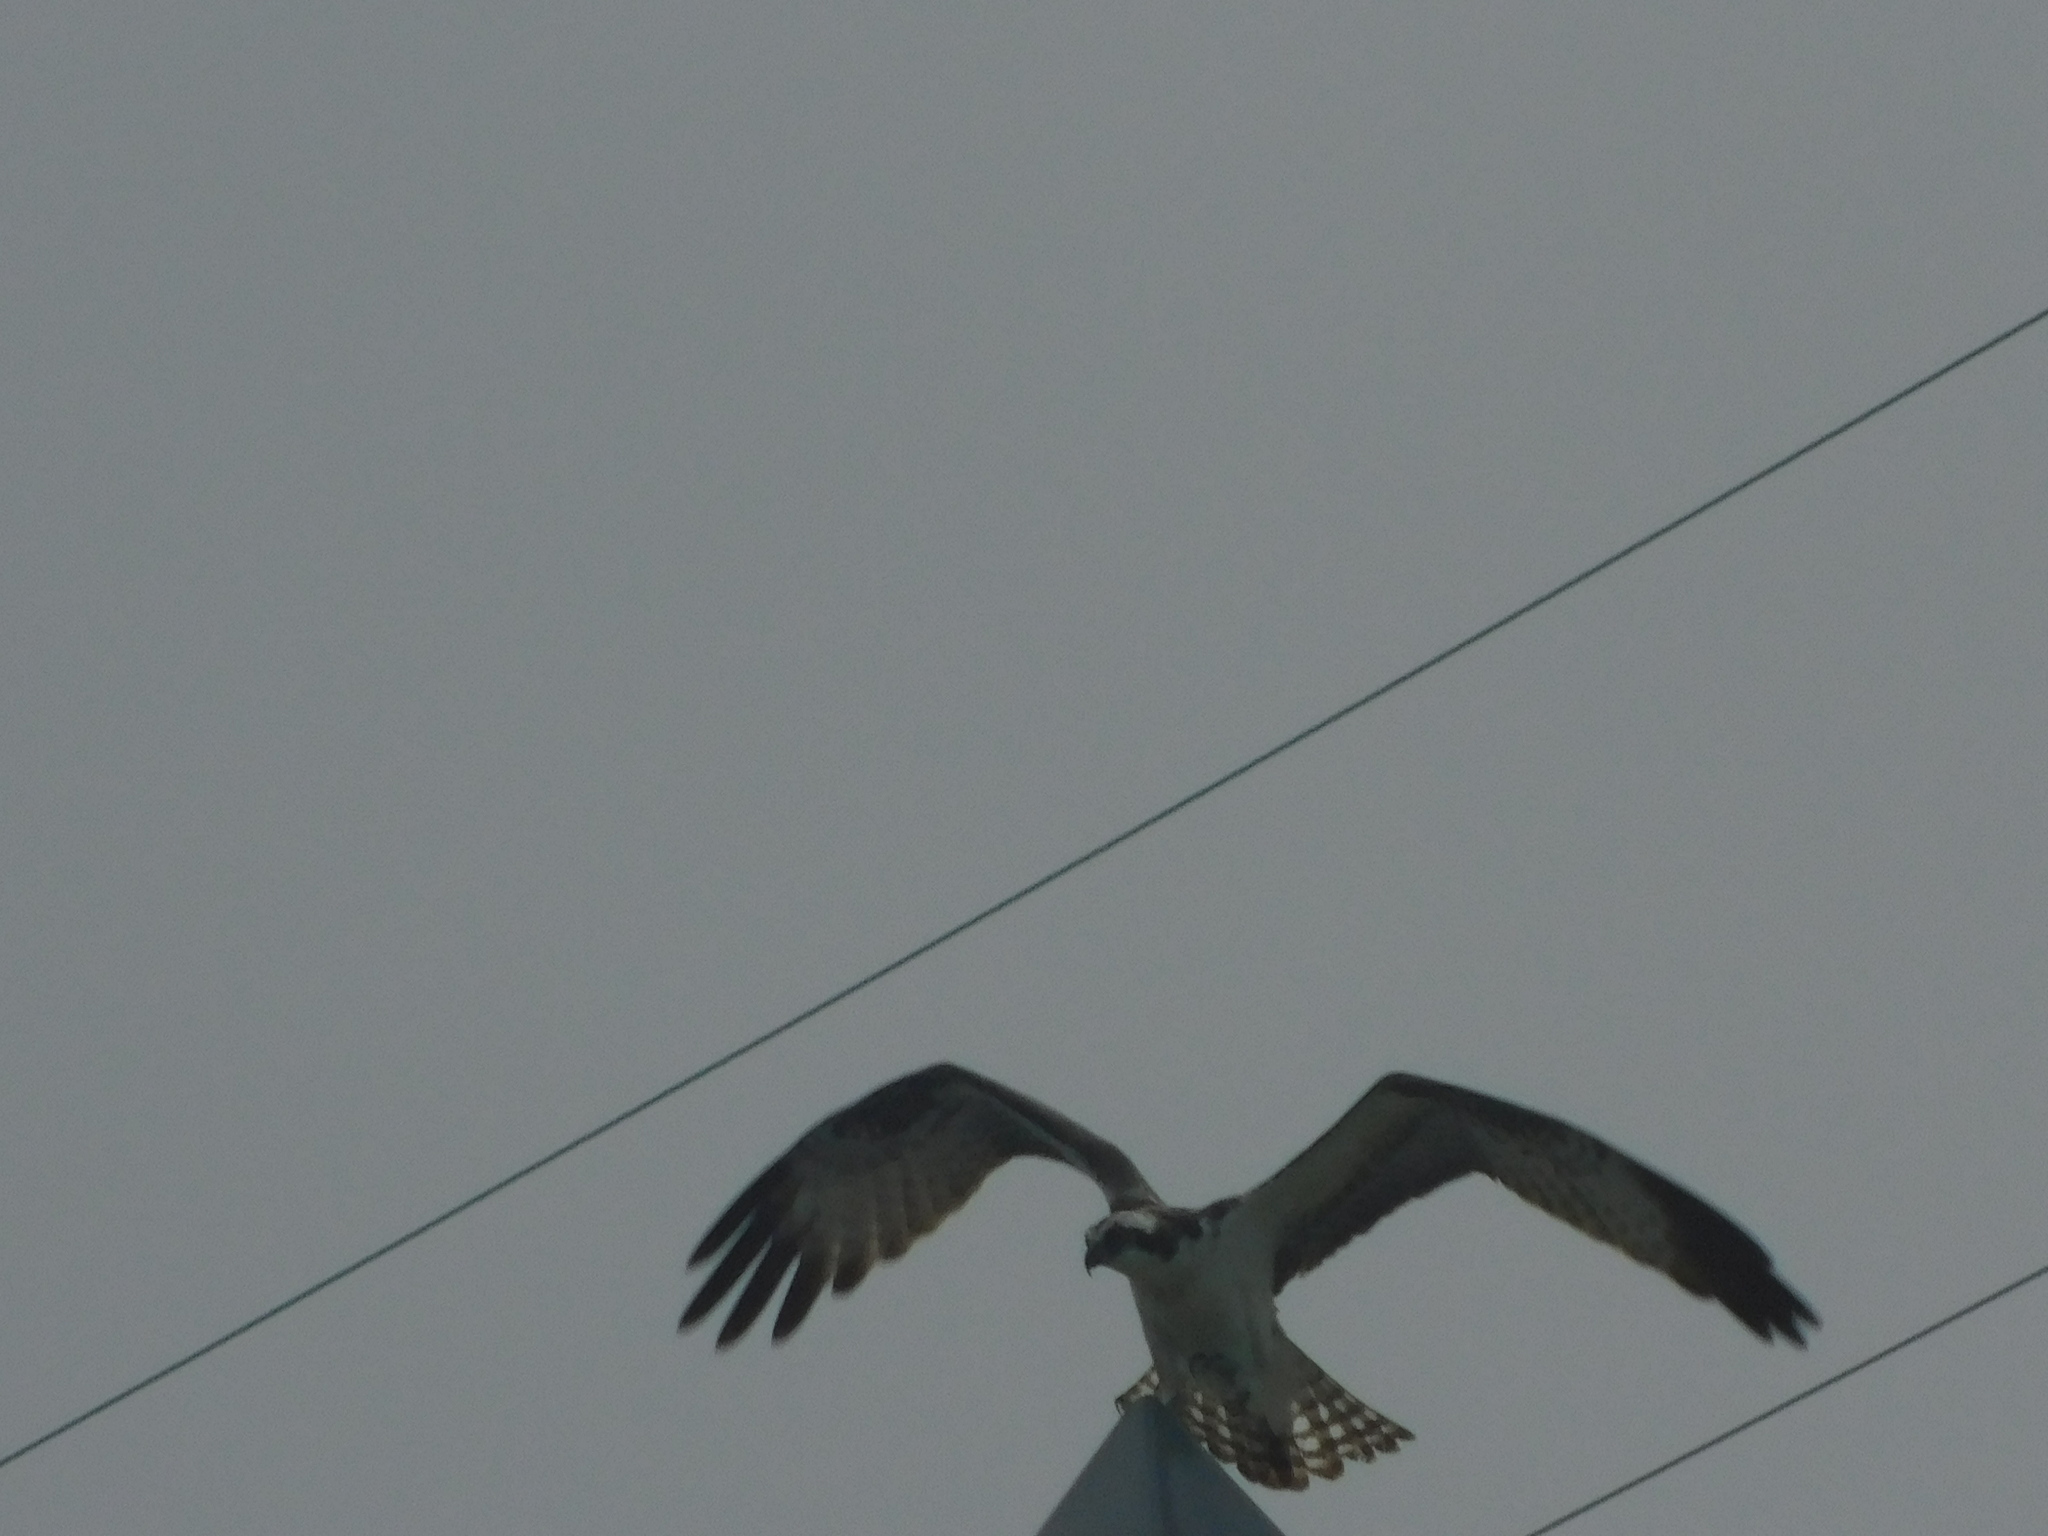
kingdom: Animalia
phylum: Chordata
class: Aves
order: Accipitriformes
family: Pandionidae
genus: Pandion
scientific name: Pandion haliaetus
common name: Osprey
